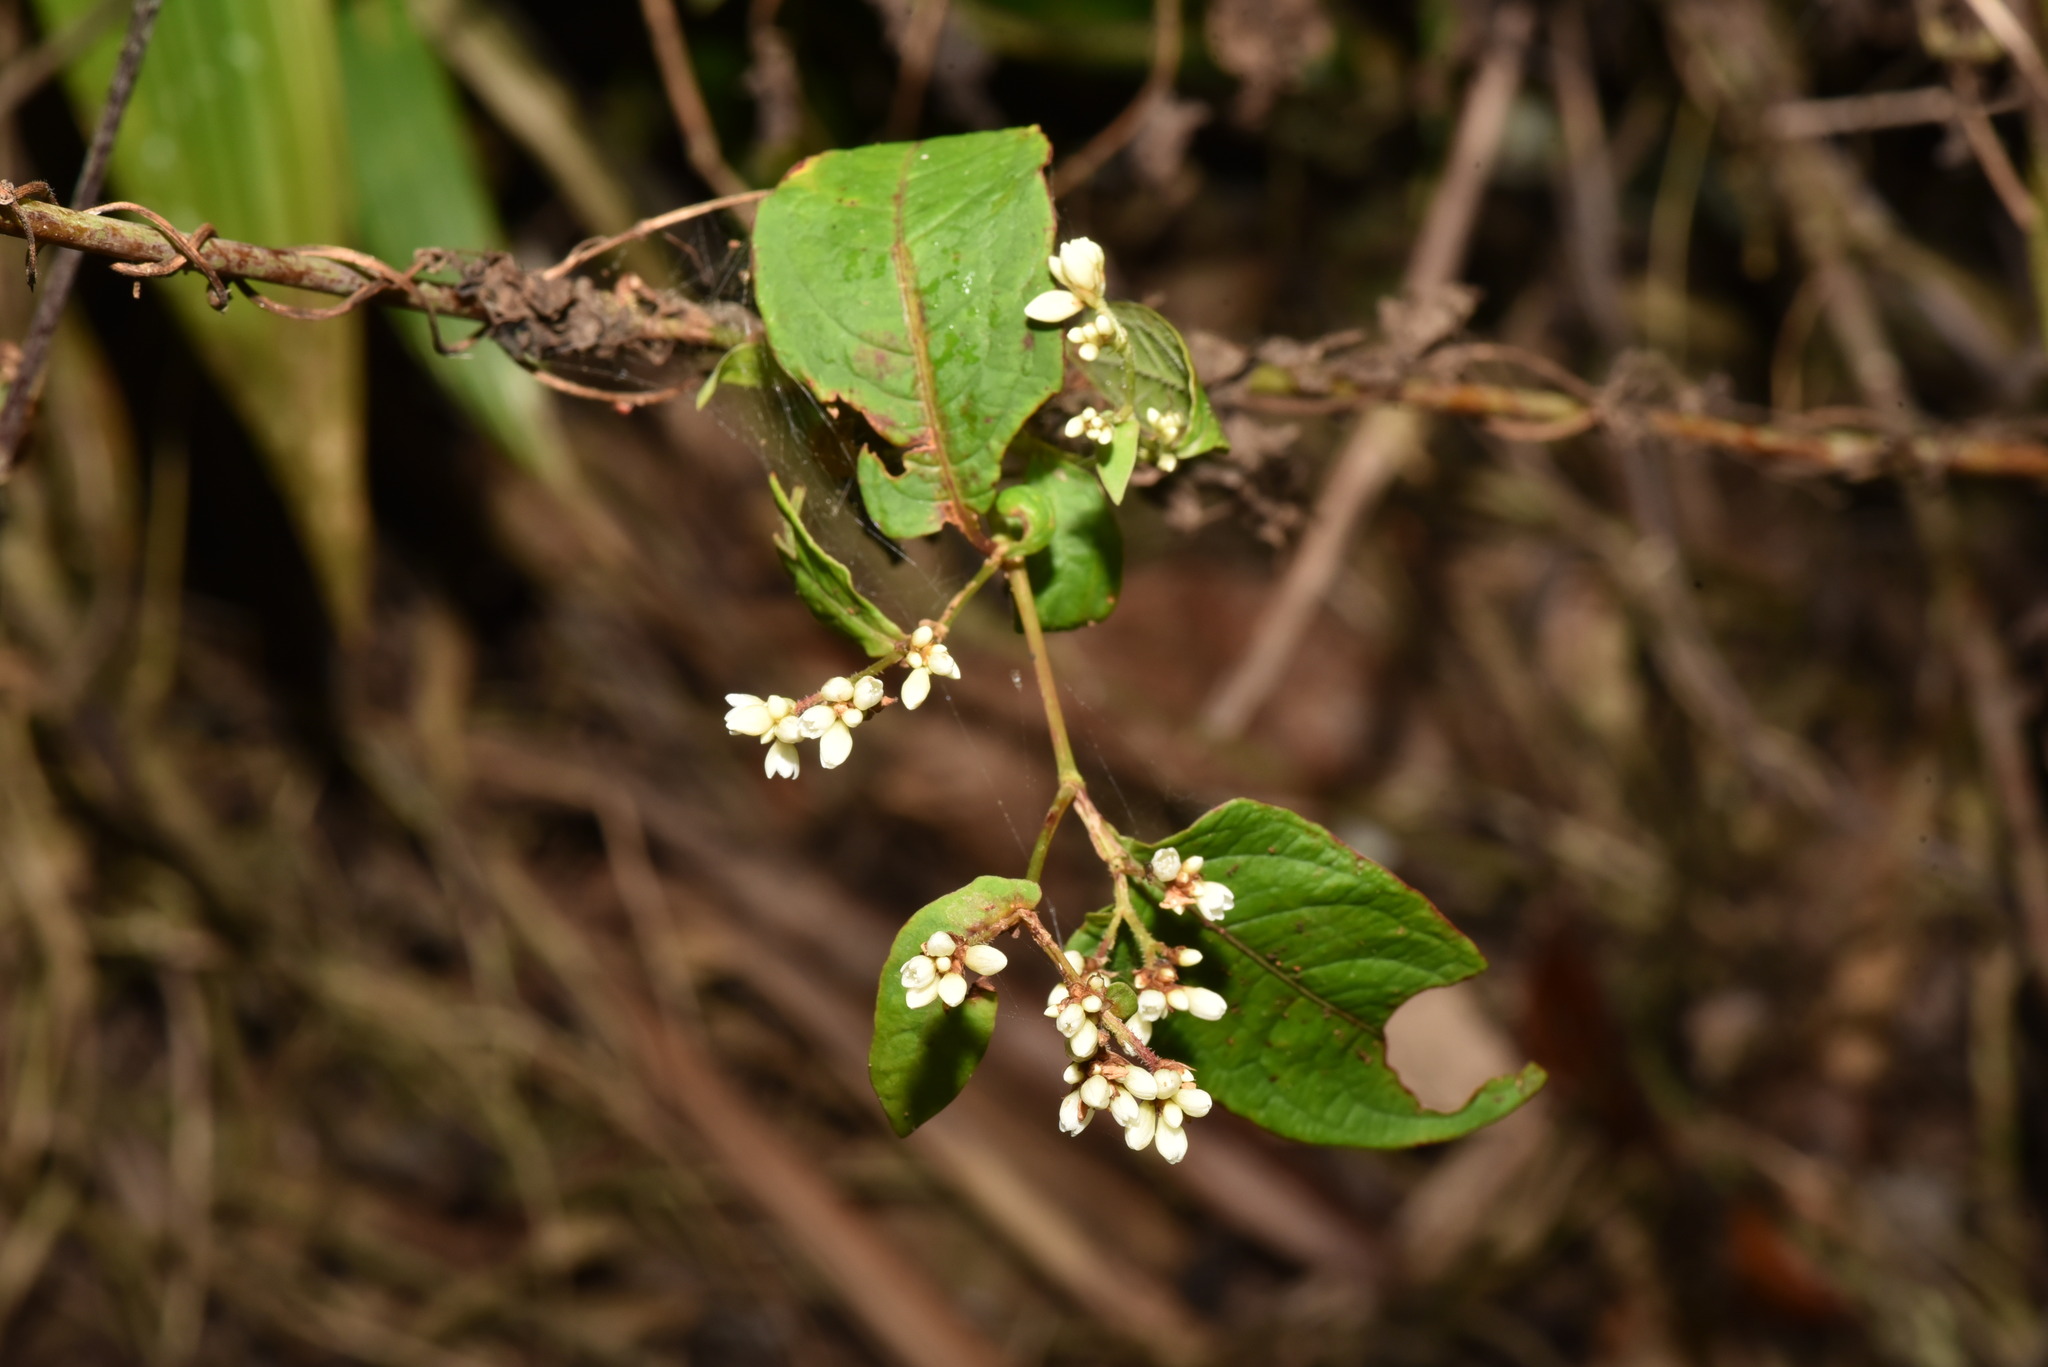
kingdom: Plantae
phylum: Tracheophyta
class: Magnoliopsida
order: Caryophyllales
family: Polygonaceae
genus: Persicaria
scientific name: Persicaria chinensis
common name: Chinese knotweed
